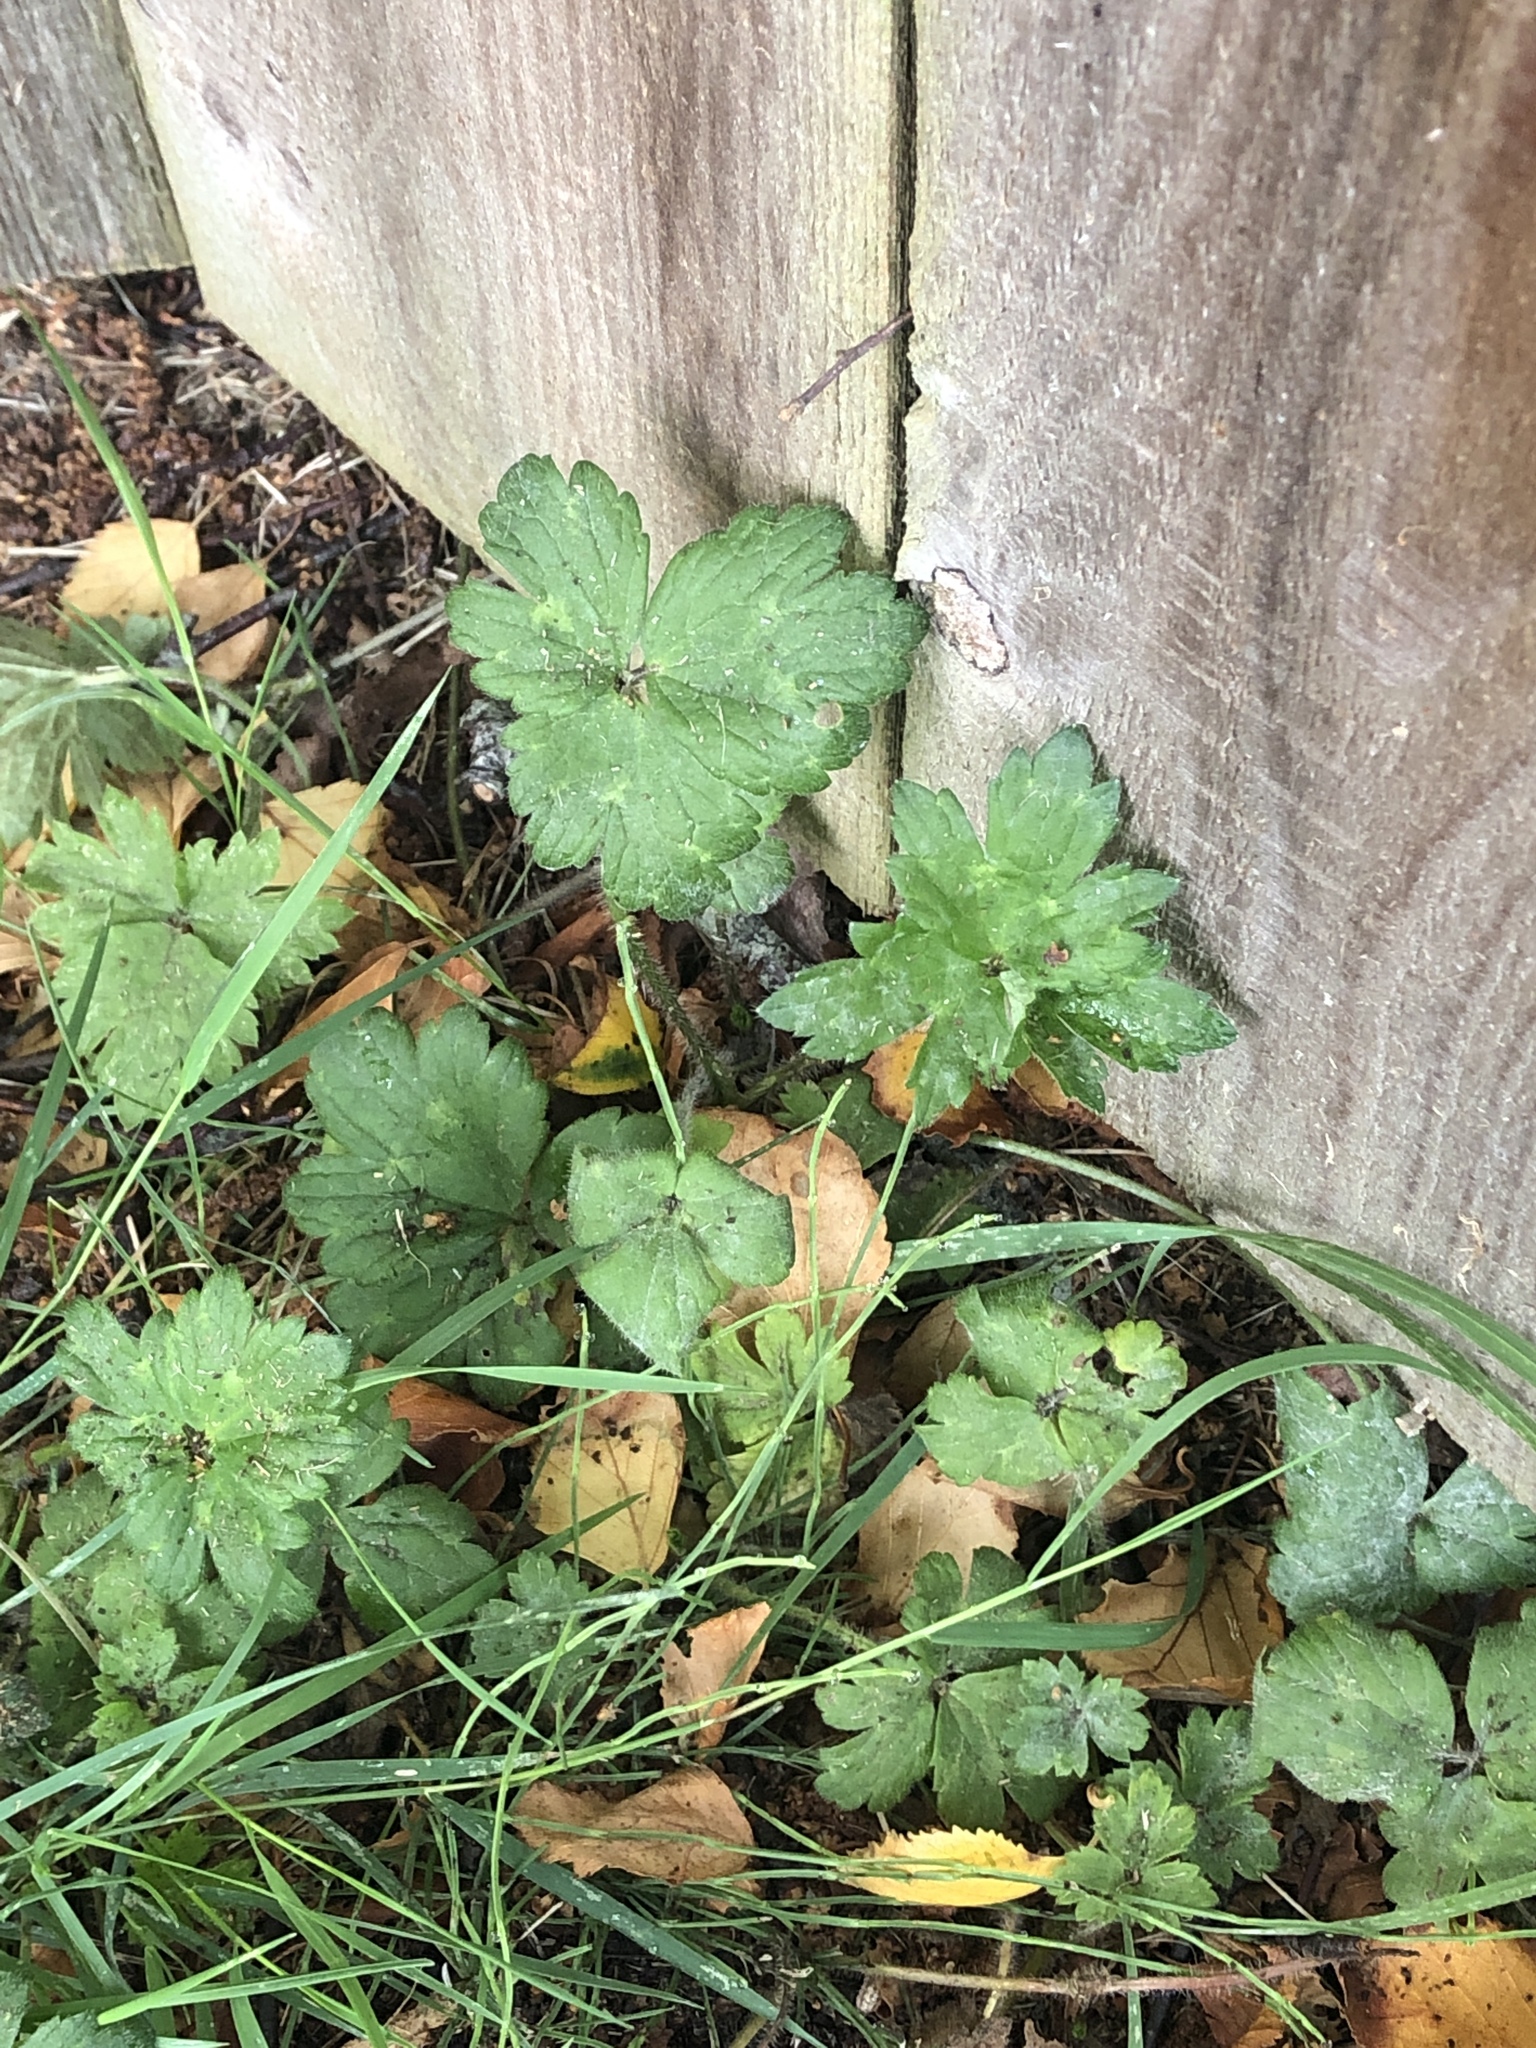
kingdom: Plantae
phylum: Tracheophyta
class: Magnoliopsida
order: Ranunculales
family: Ranunculaceae
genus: Ranunculus
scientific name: Ranunculus repens
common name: Creeping buttercup
